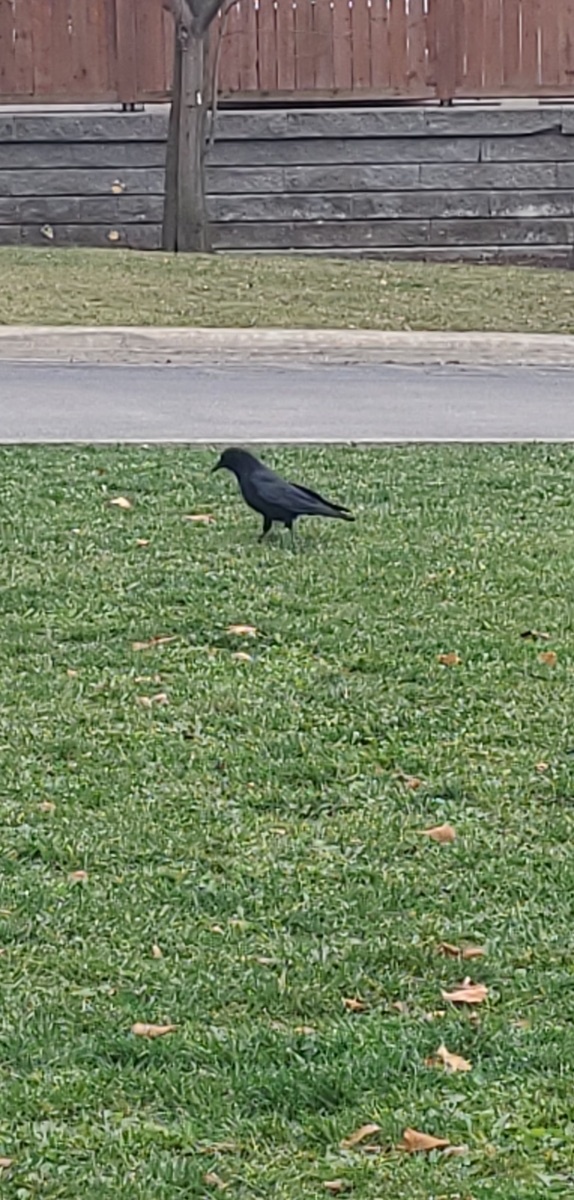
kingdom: Animalia
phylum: Chordata
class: Aves
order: Passeriformes
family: Corvidae
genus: Corvus
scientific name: Corvus brachyrhynchos
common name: American crow
